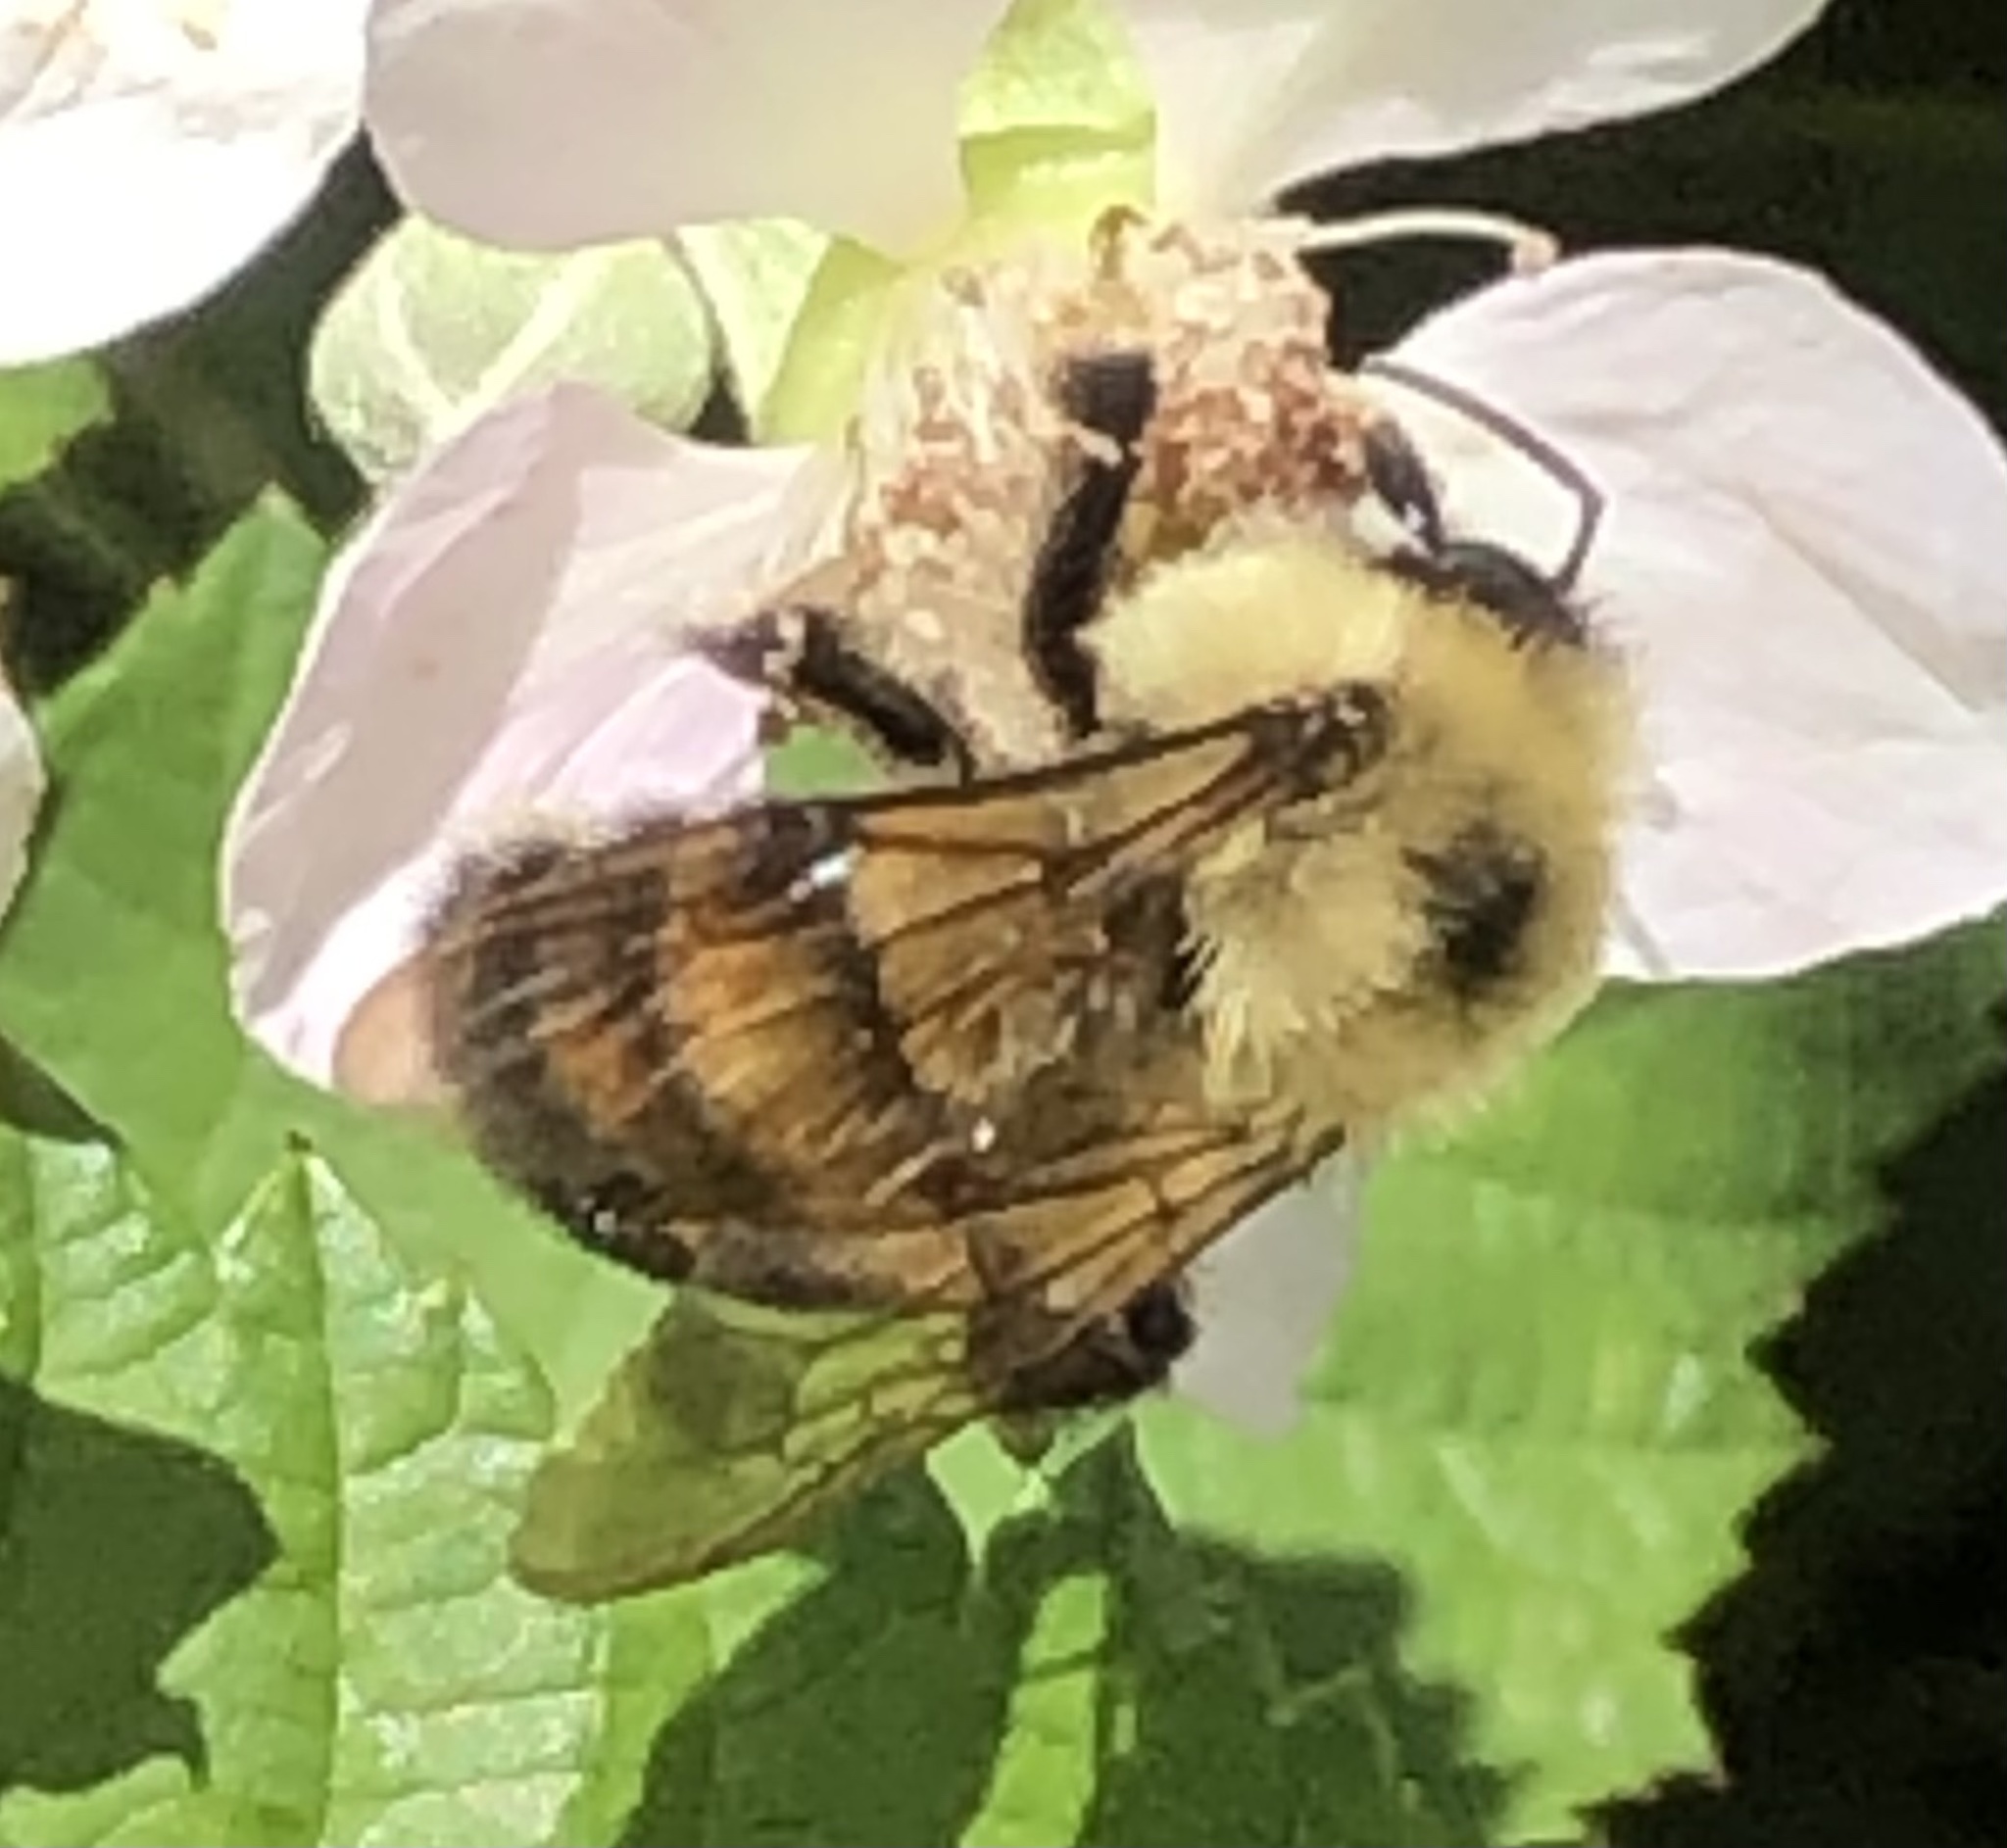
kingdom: Animalia
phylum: Arthropoda
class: Insecta
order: Hymenoptera
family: Apidae
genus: Bombus
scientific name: Bombus bimaculatus
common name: Two-spotted bumble bee
